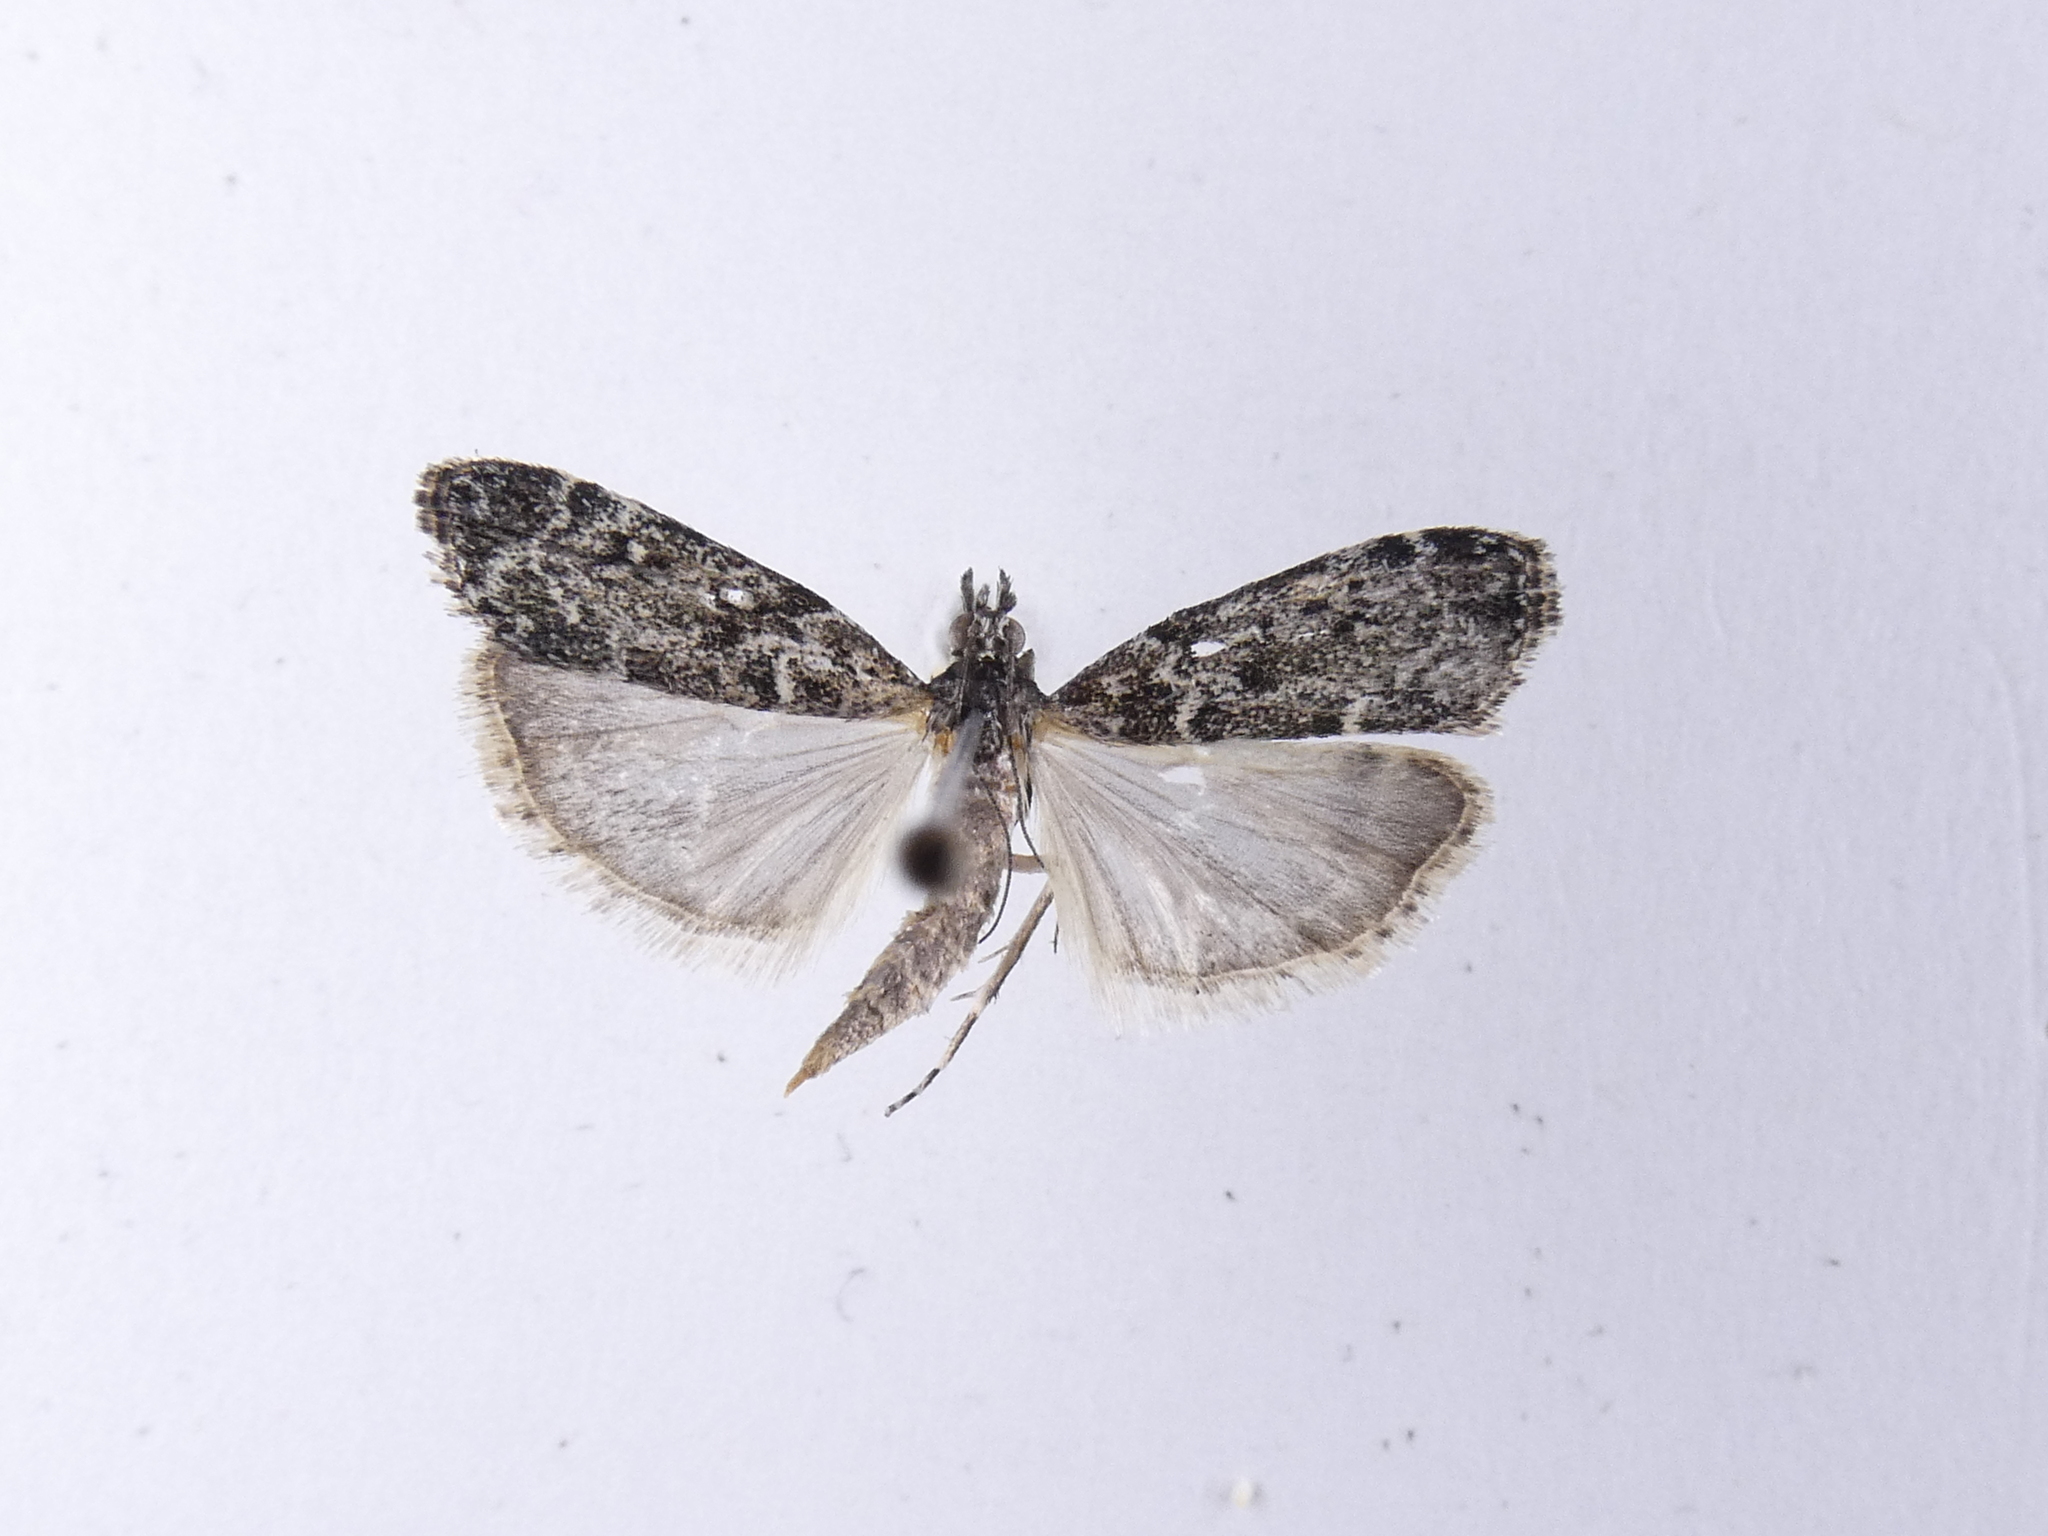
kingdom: Animalia
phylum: Arthropoda
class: Insecta
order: Lepidoptera
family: Crambidae
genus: Eudonia
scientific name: Eudonia philerga
